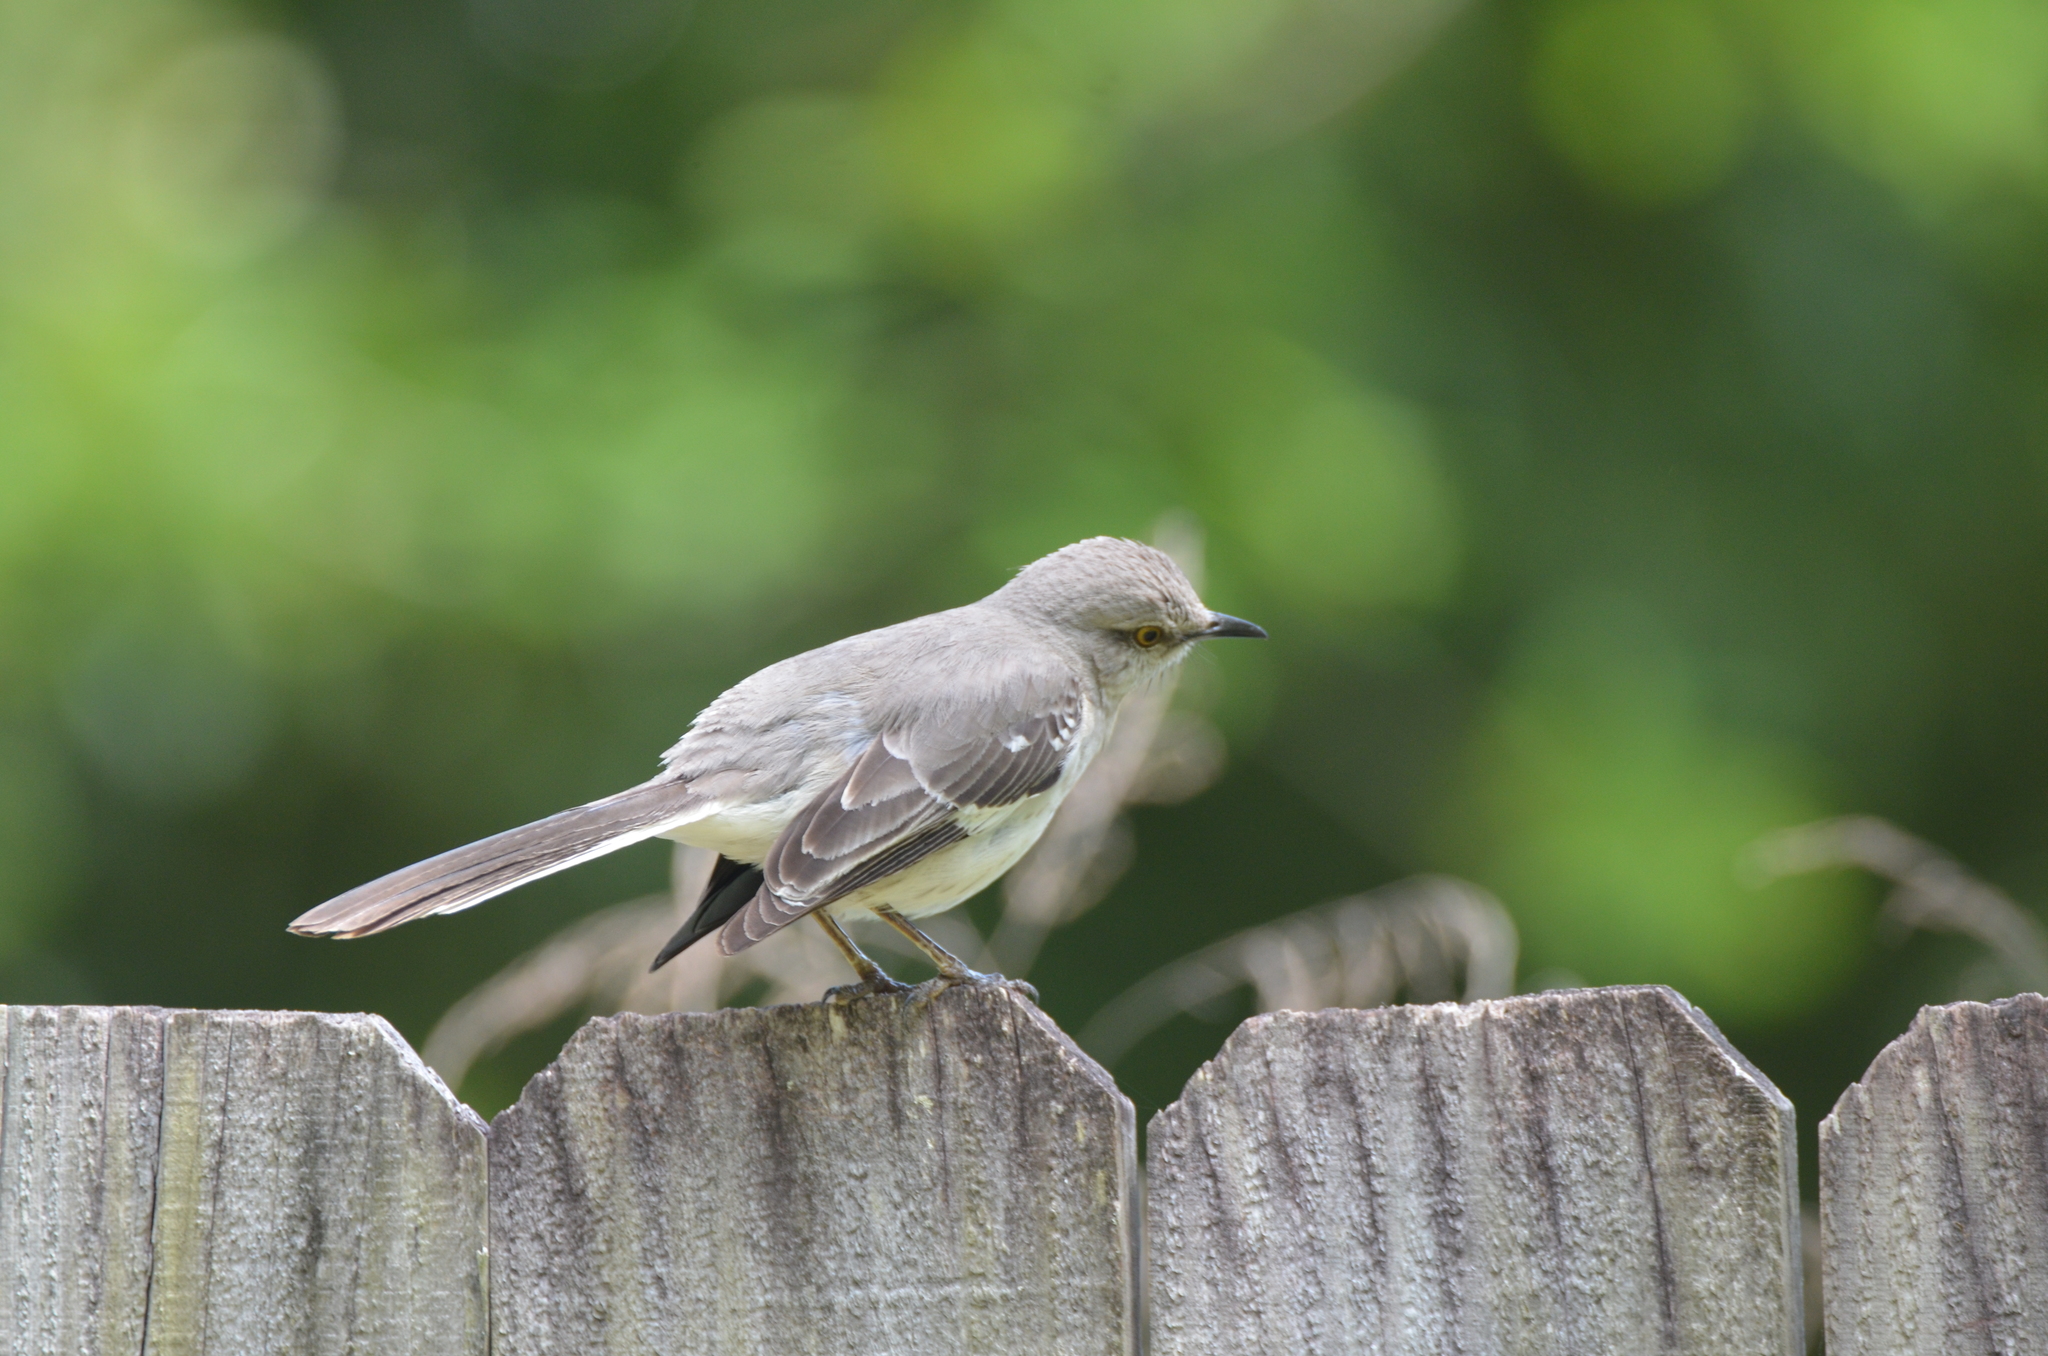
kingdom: Animalia
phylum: Chordata
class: Aves
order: Passeriformes
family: Mimidae
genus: Mimus
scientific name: Mimus polyglottos
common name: Northern mockingbird
